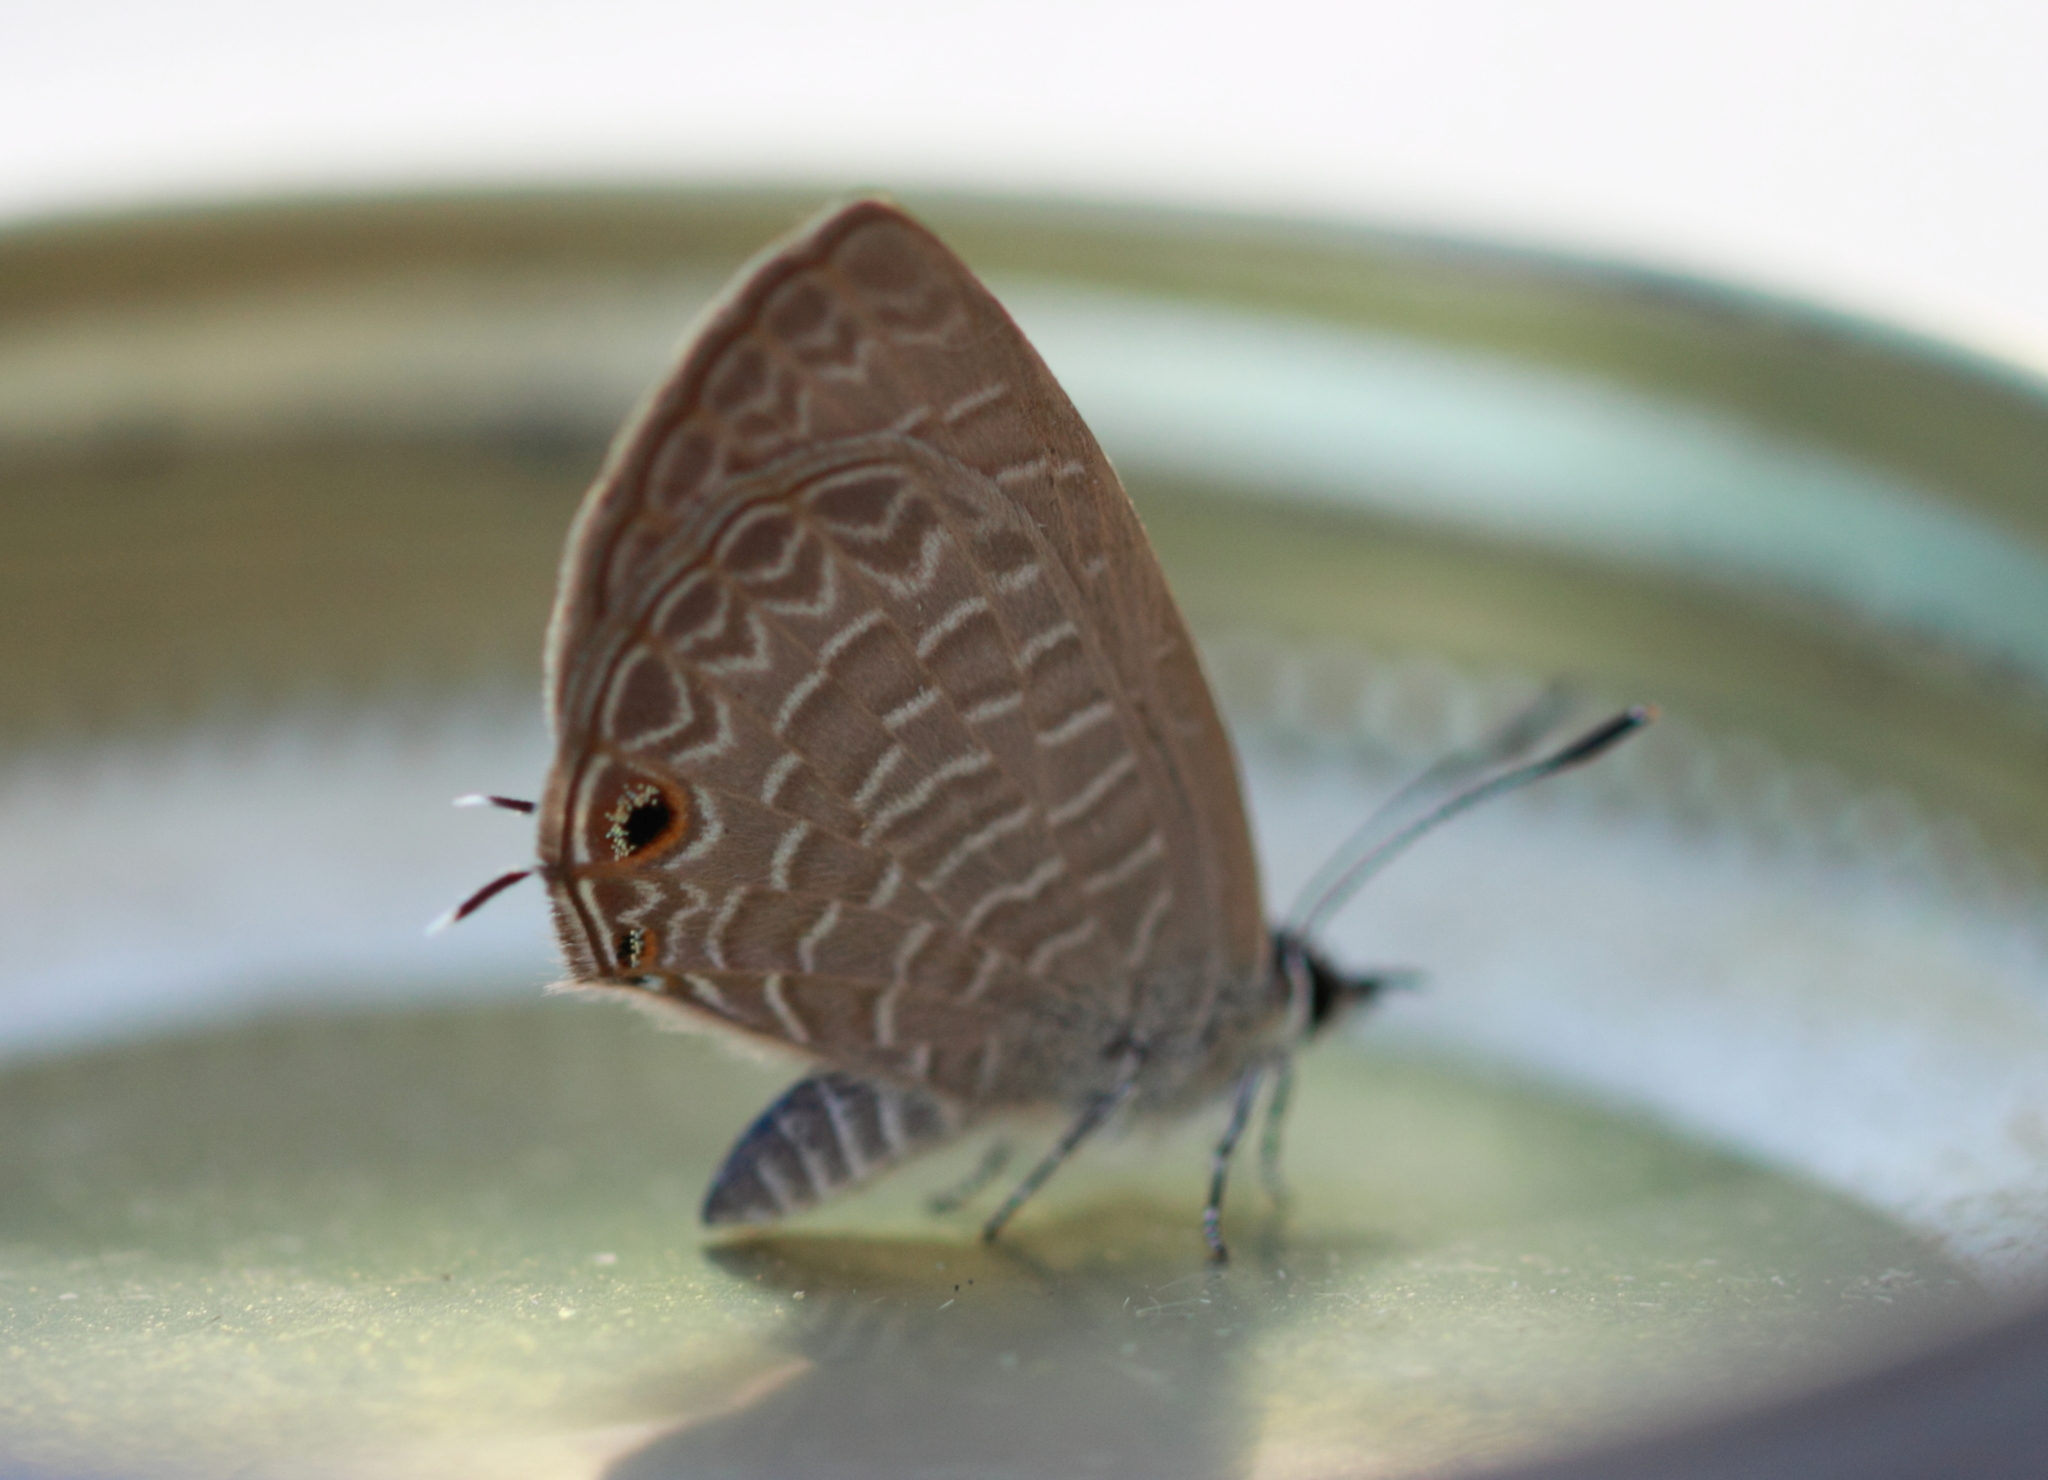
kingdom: Animalia
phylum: Arthropoda
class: Insecta
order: Lepidoptera
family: Lycaenidae
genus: Jamides
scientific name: Jamides phaseli
